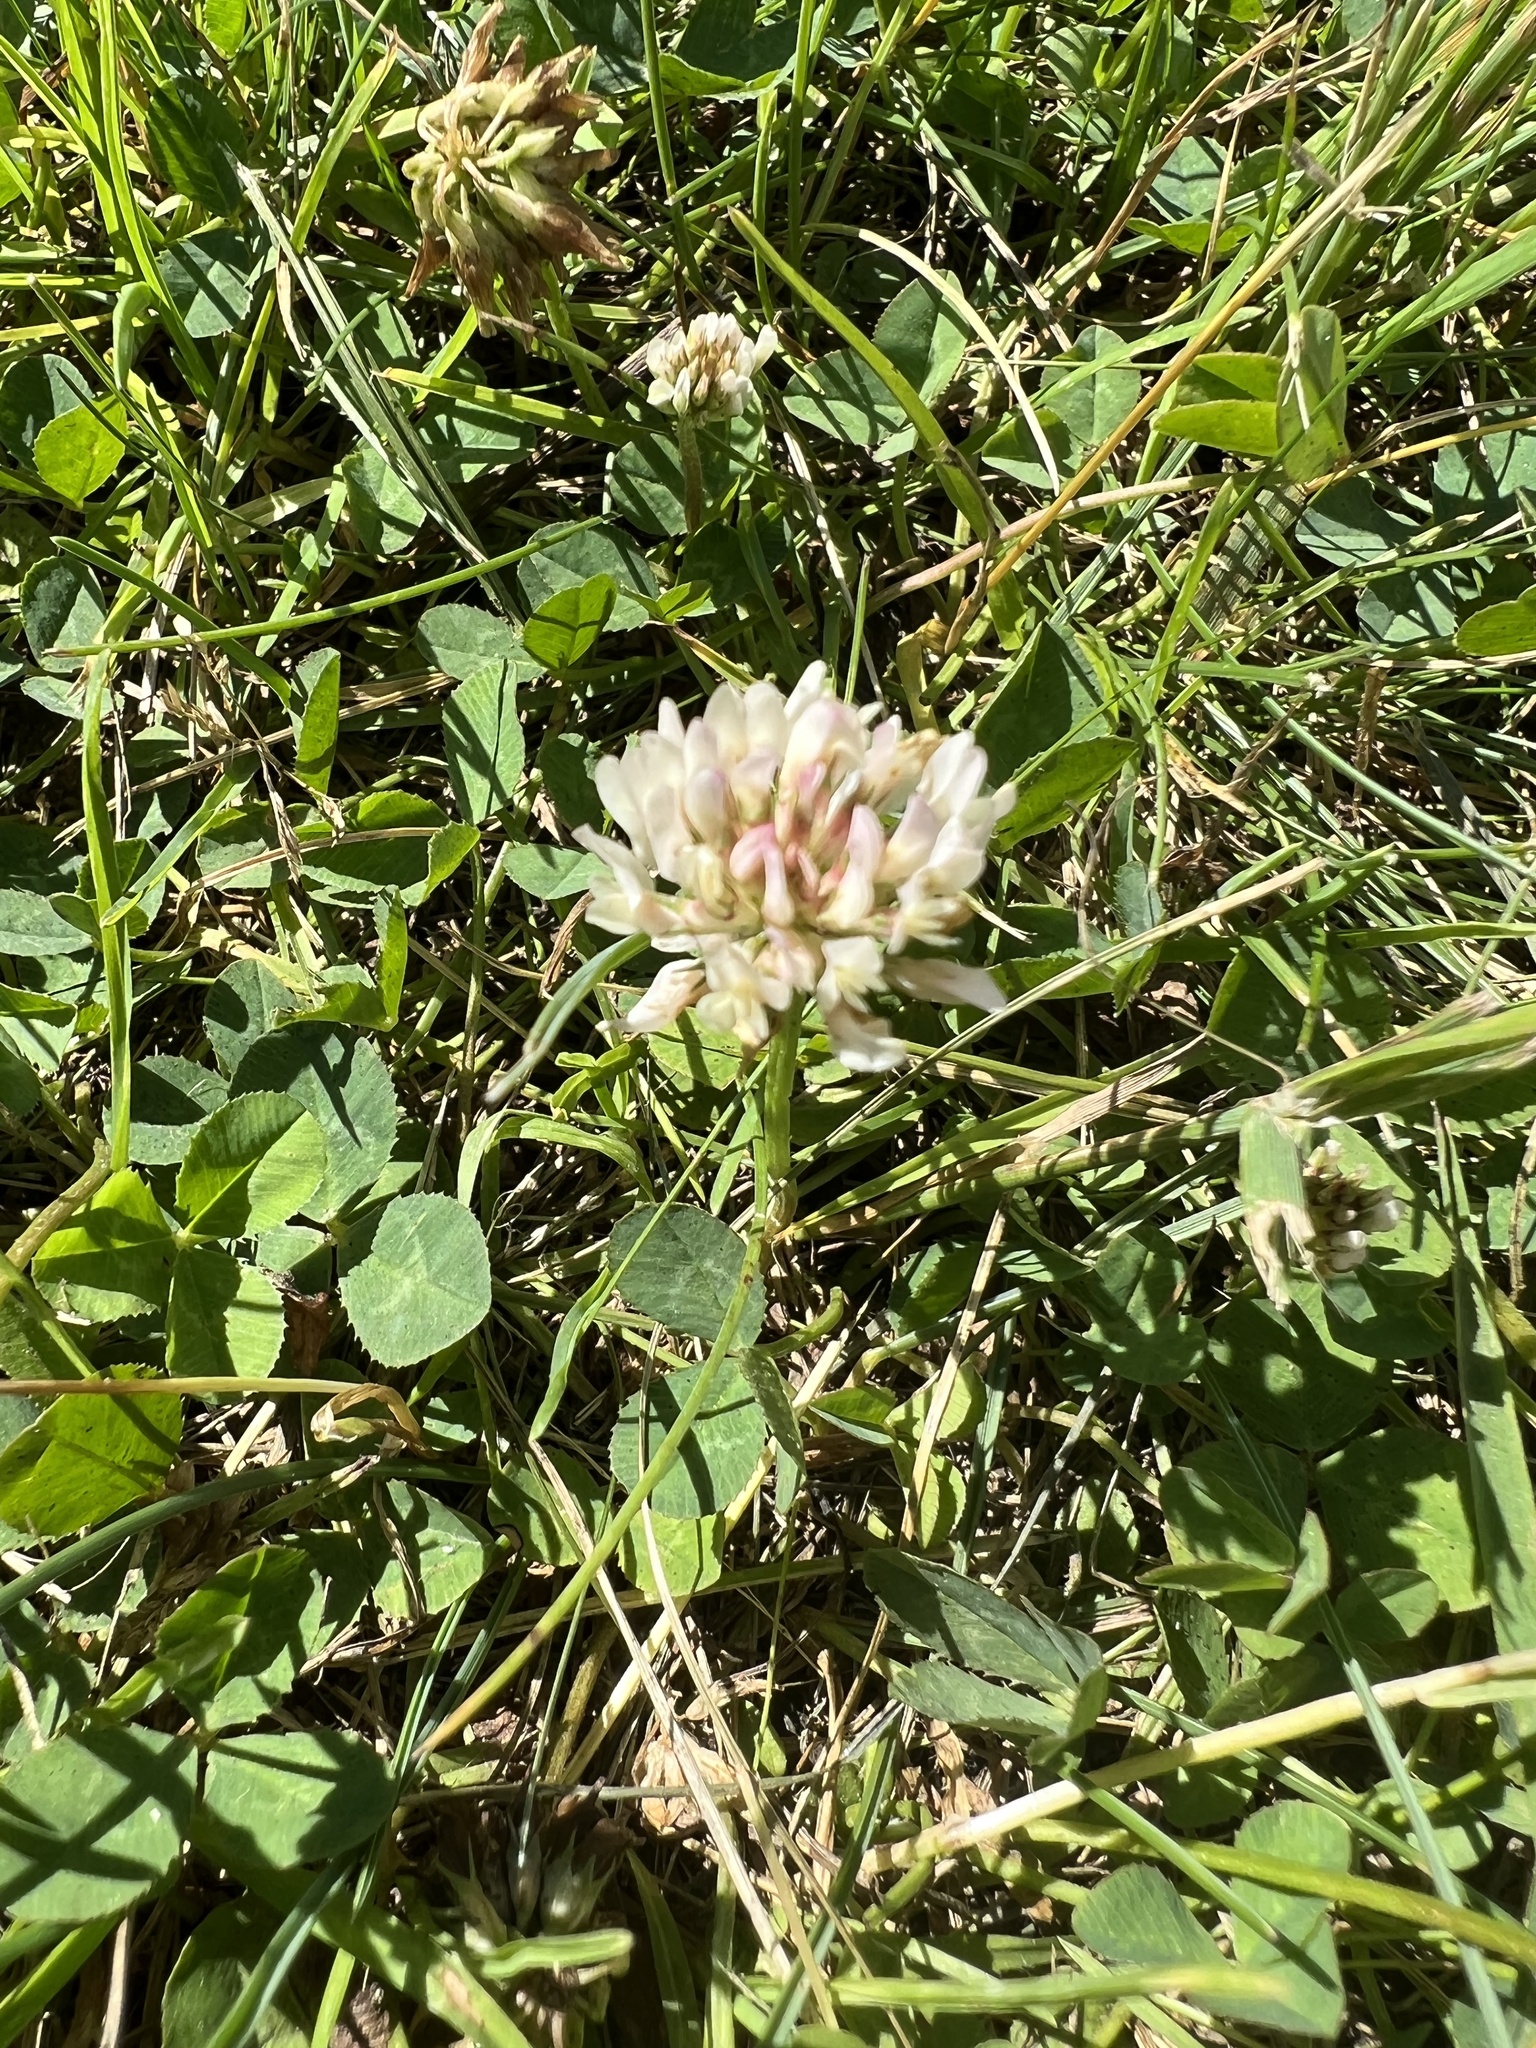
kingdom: Plantae
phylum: Tracheophyta
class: Magnoliopsida
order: Fabales
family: Fabaceae
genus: Trifolium
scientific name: Trifolium repens
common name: White clover
